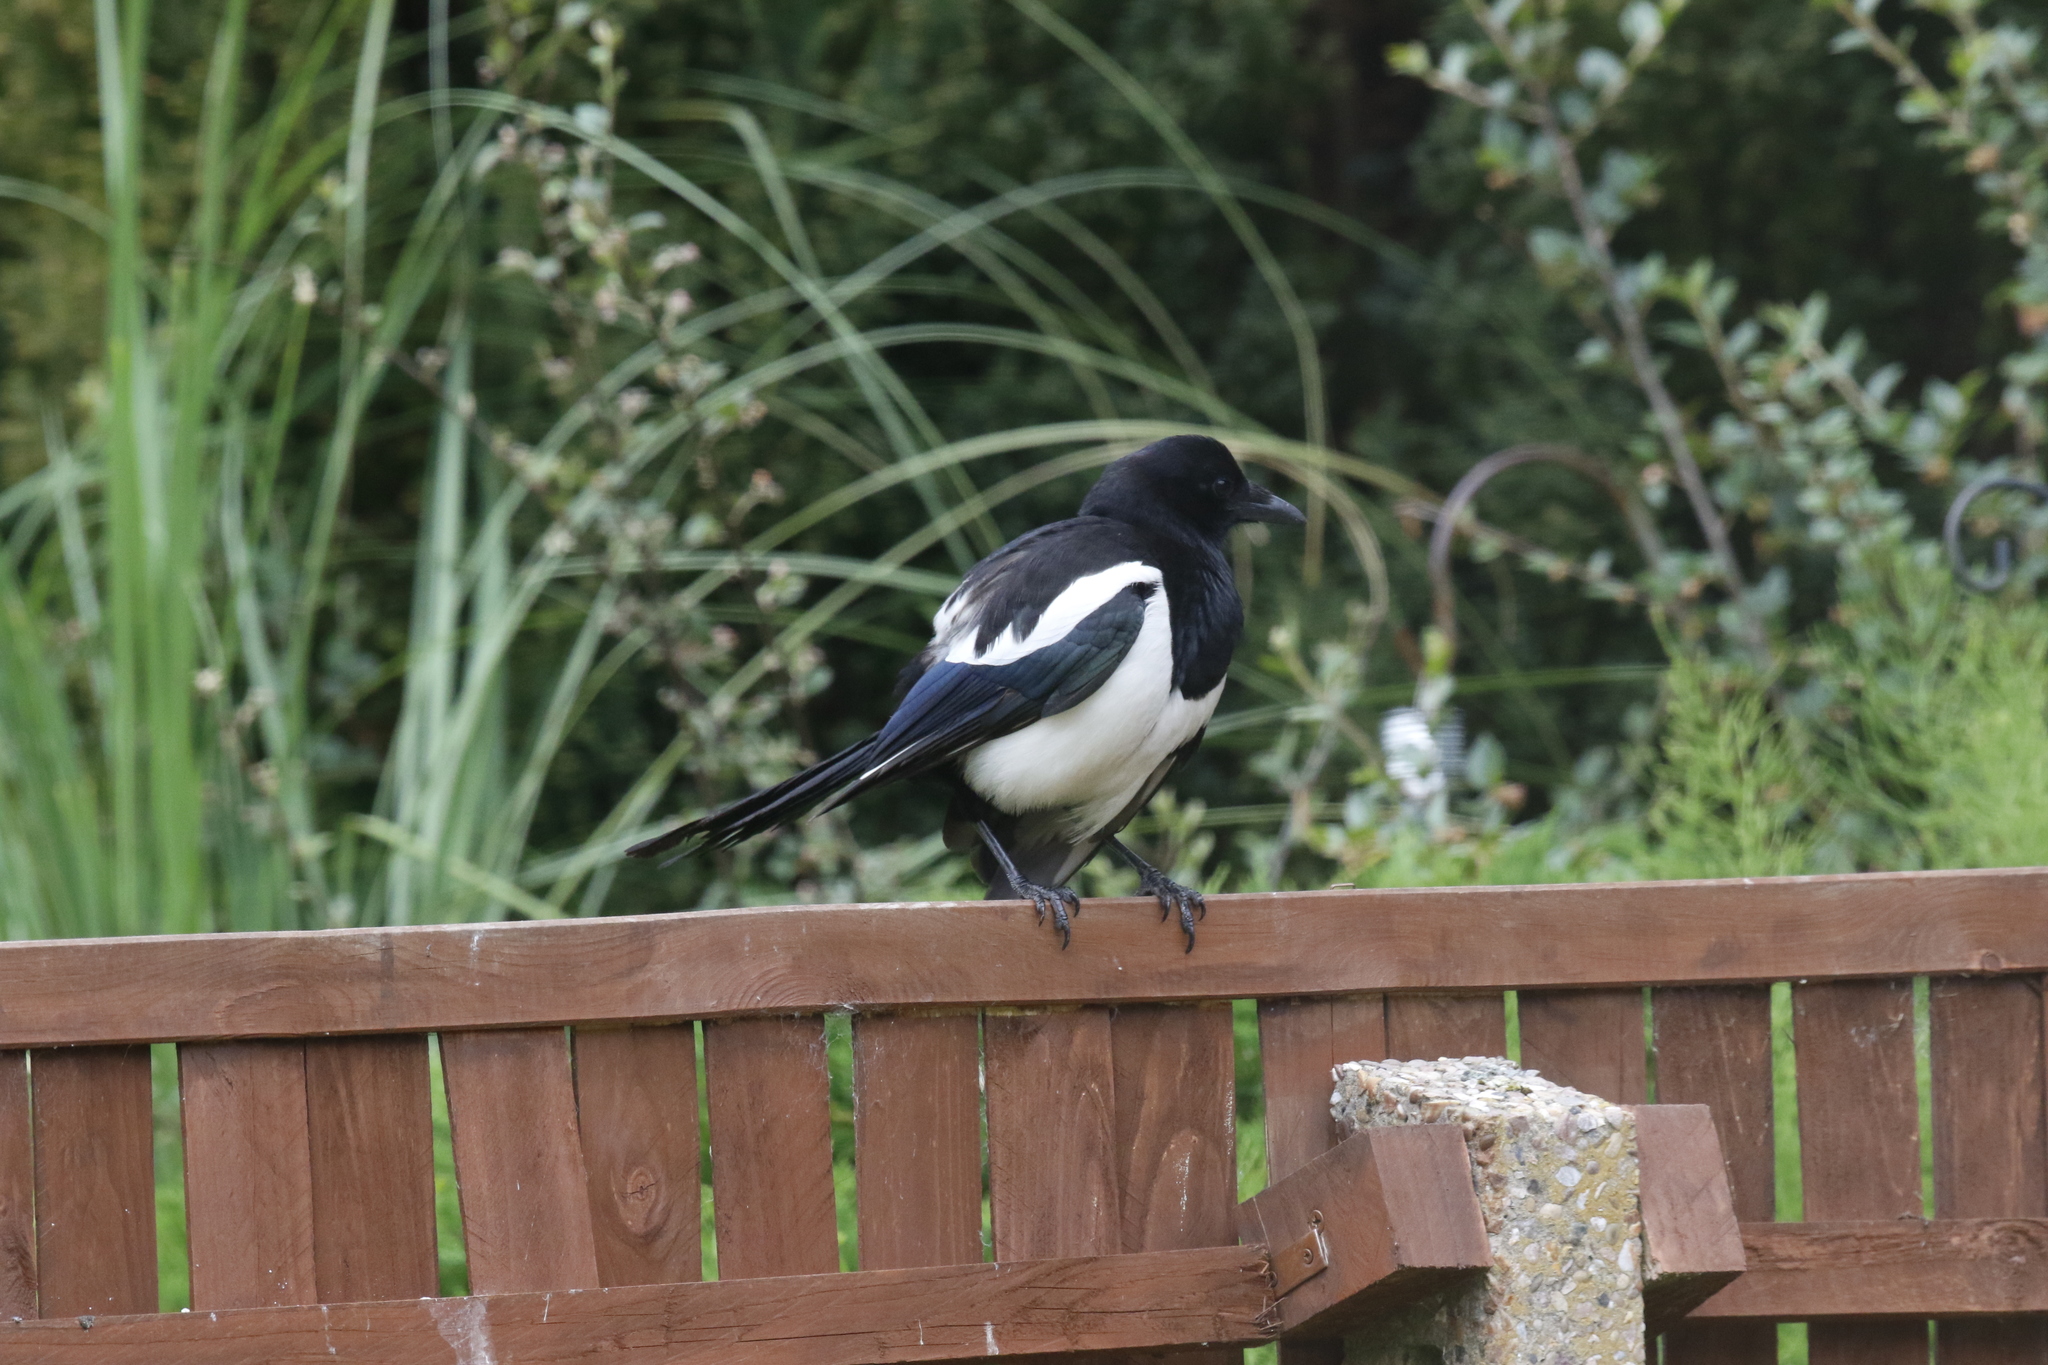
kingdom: Animalia
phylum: Chordata
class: Aves
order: Passeriformes
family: Corvidae
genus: Pica
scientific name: Pica pica
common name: Eurasian magpie
